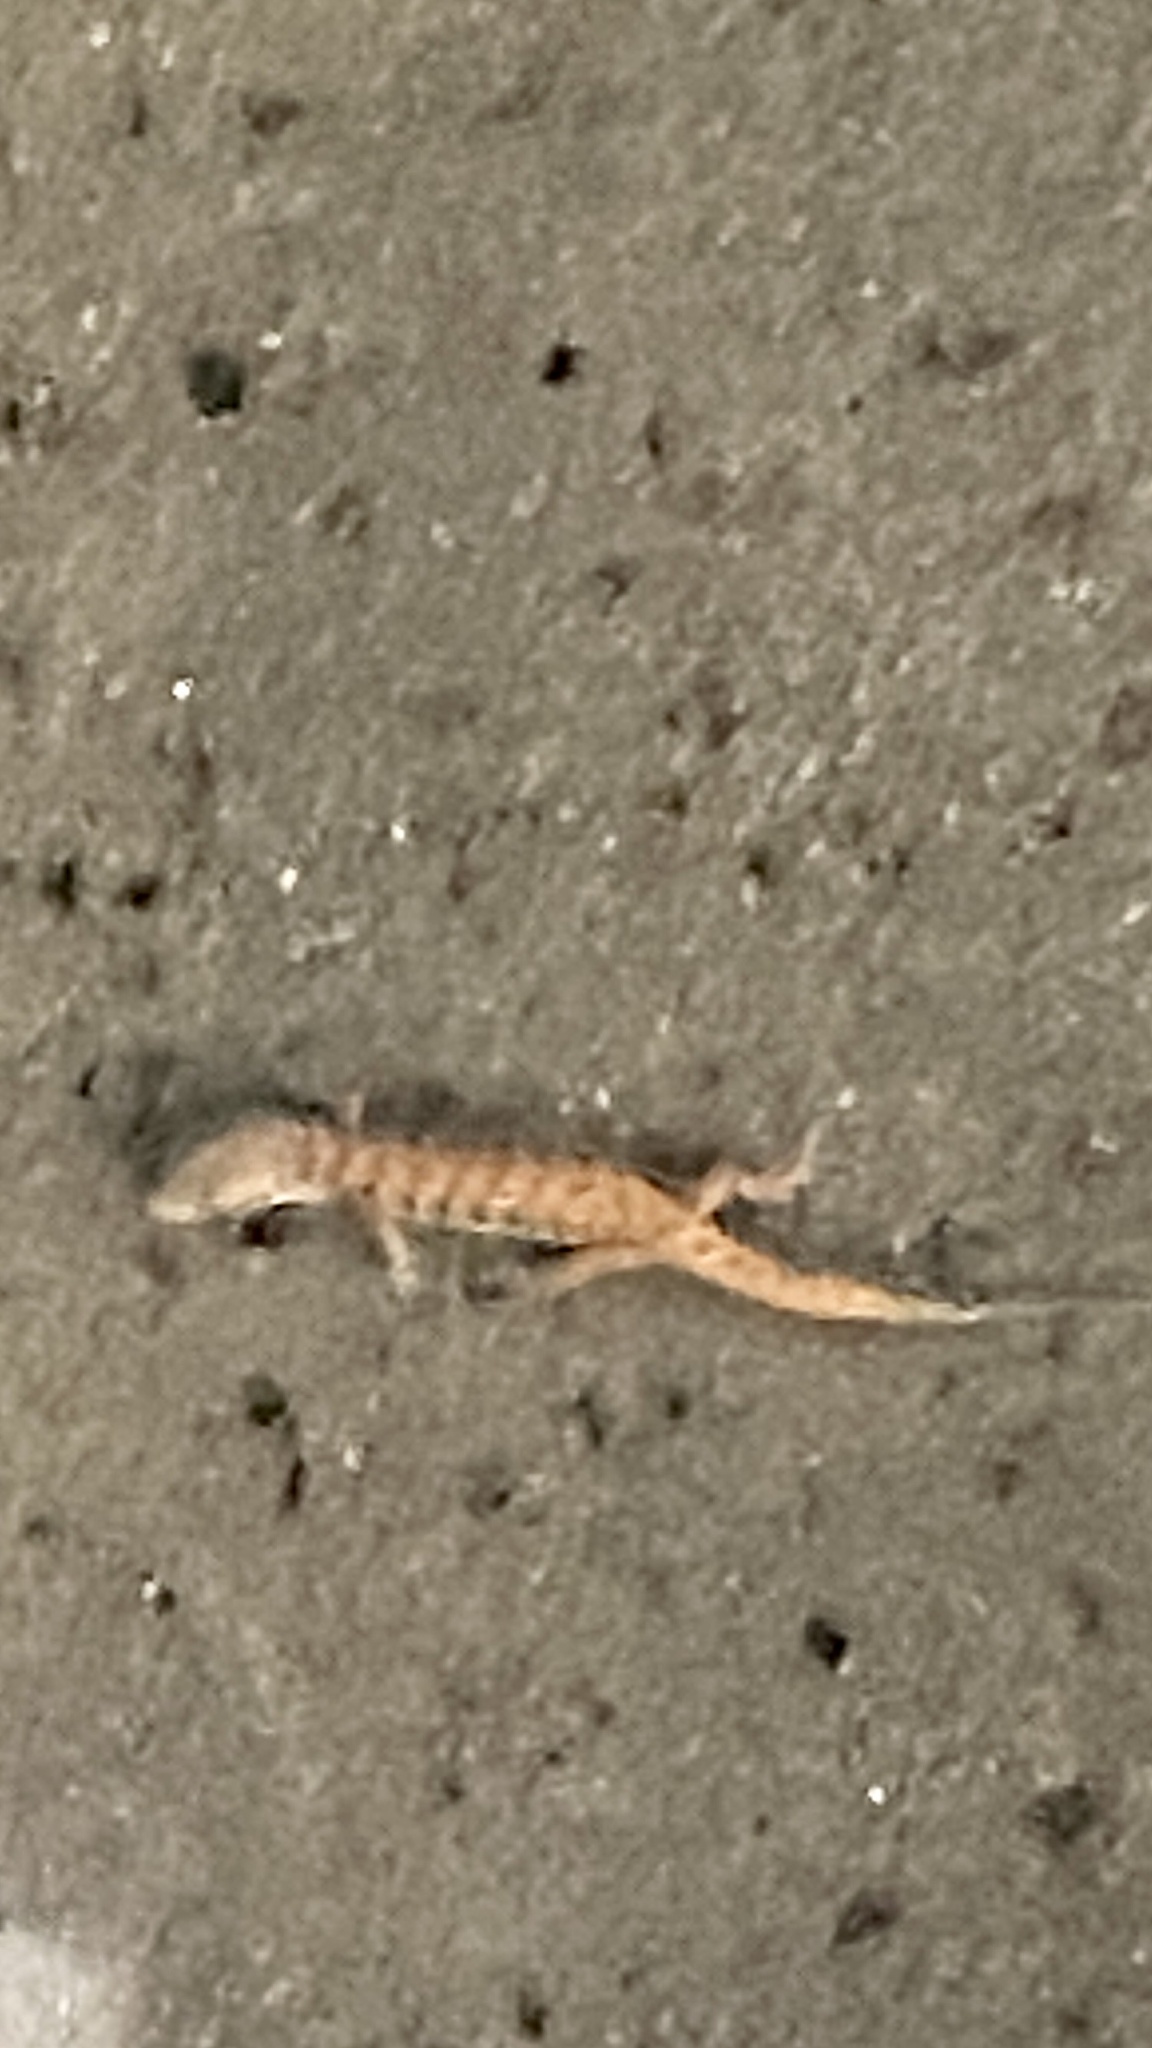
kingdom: Animalia
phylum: Chordata
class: Squamata
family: Anguidae
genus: Elgaria
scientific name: Elgaria multicarinata
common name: Southern alligator lizard
